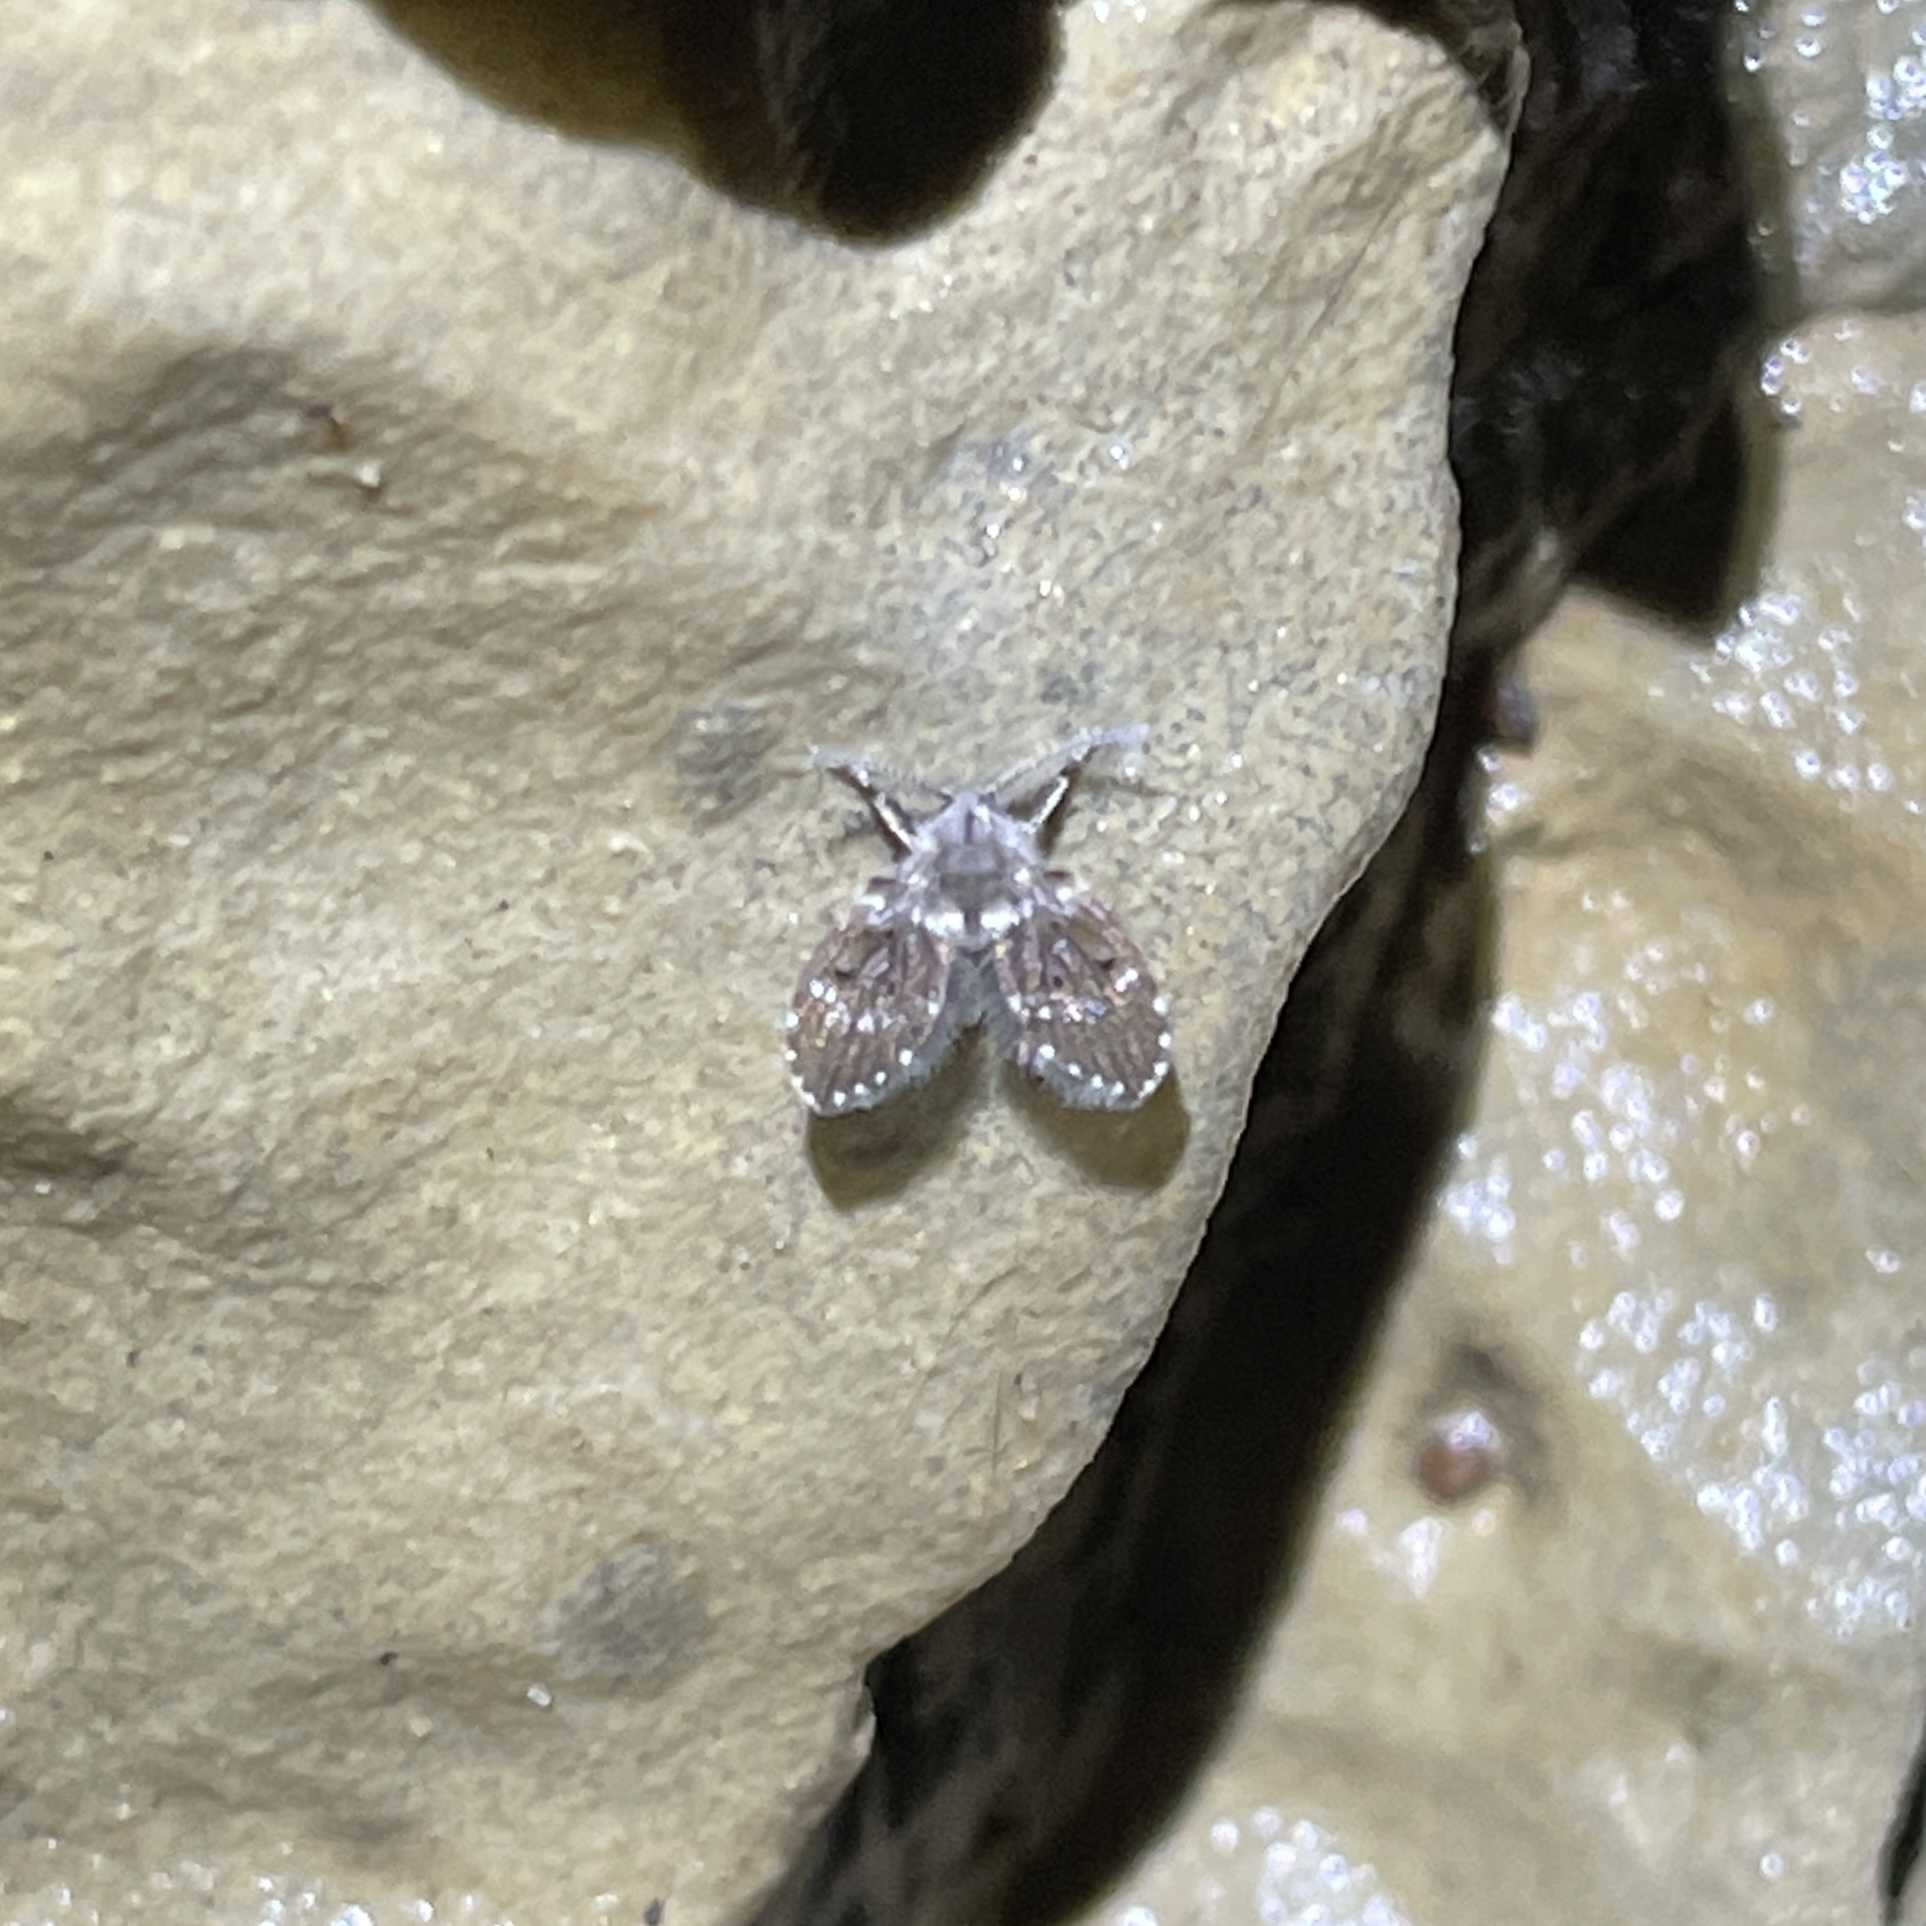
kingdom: Animalia
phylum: Arthropoda
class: Insecta
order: Diptera
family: Psychodidae
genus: Clogmia
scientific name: Clogmia albipunctatus
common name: White-spotted moth fly
